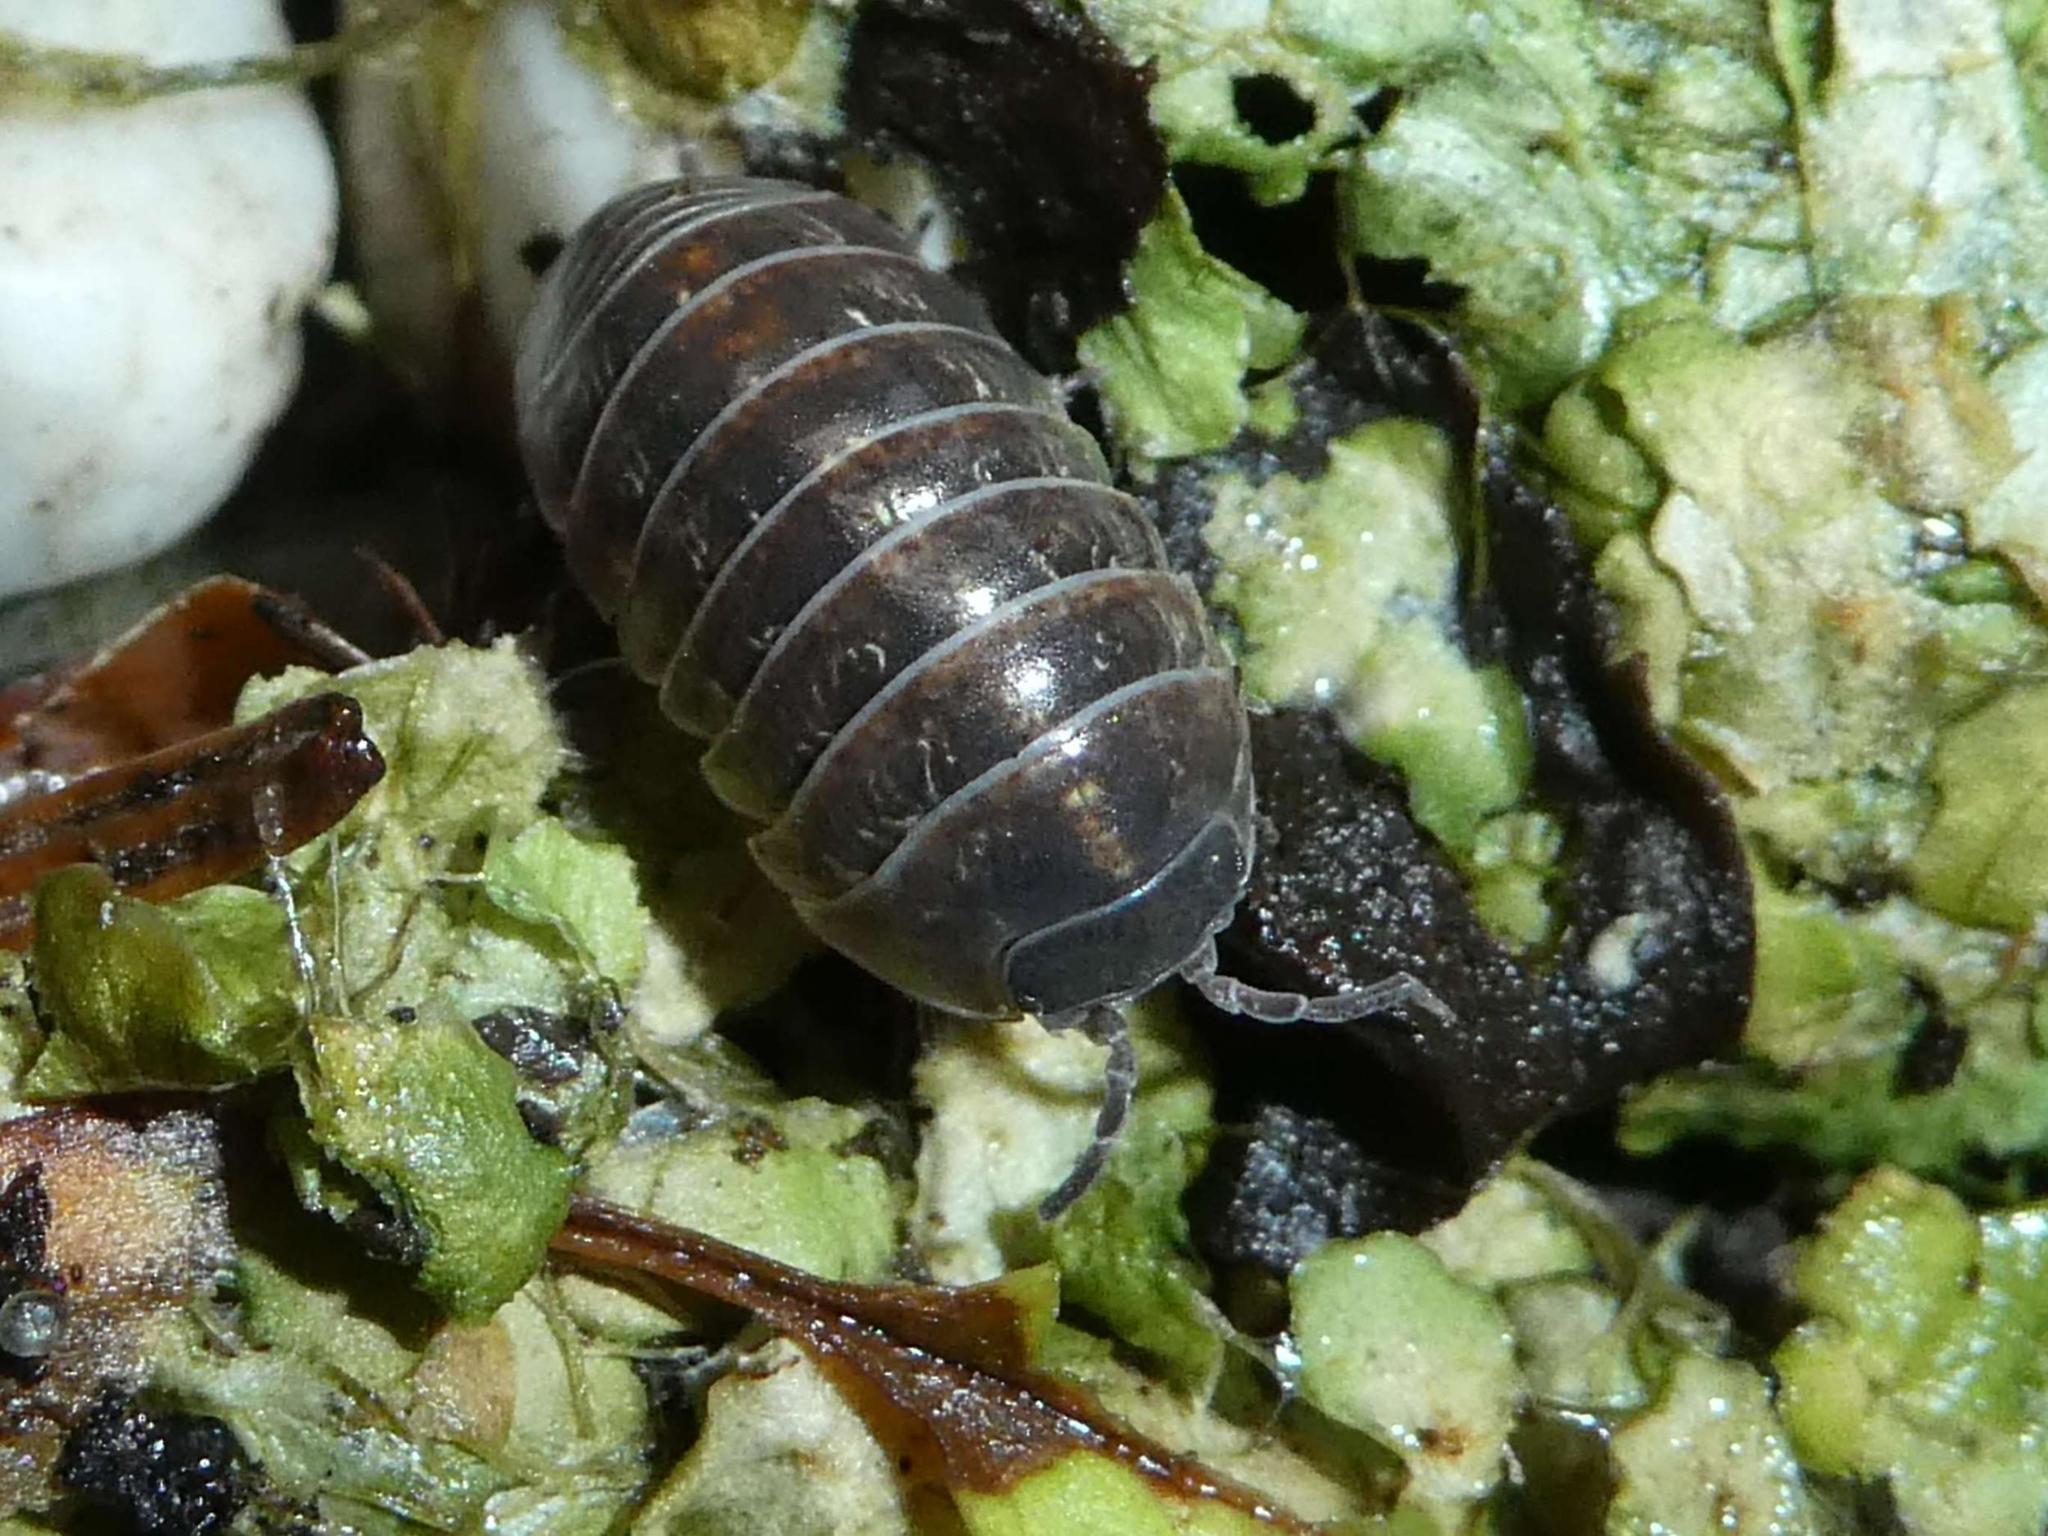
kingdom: Animalia
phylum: Arthropoda
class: Malacostraca
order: Isopoda
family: Armadillidiidae
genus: Armadillidium
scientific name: Armadillidium vulgare
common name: Common pill woodlouse
